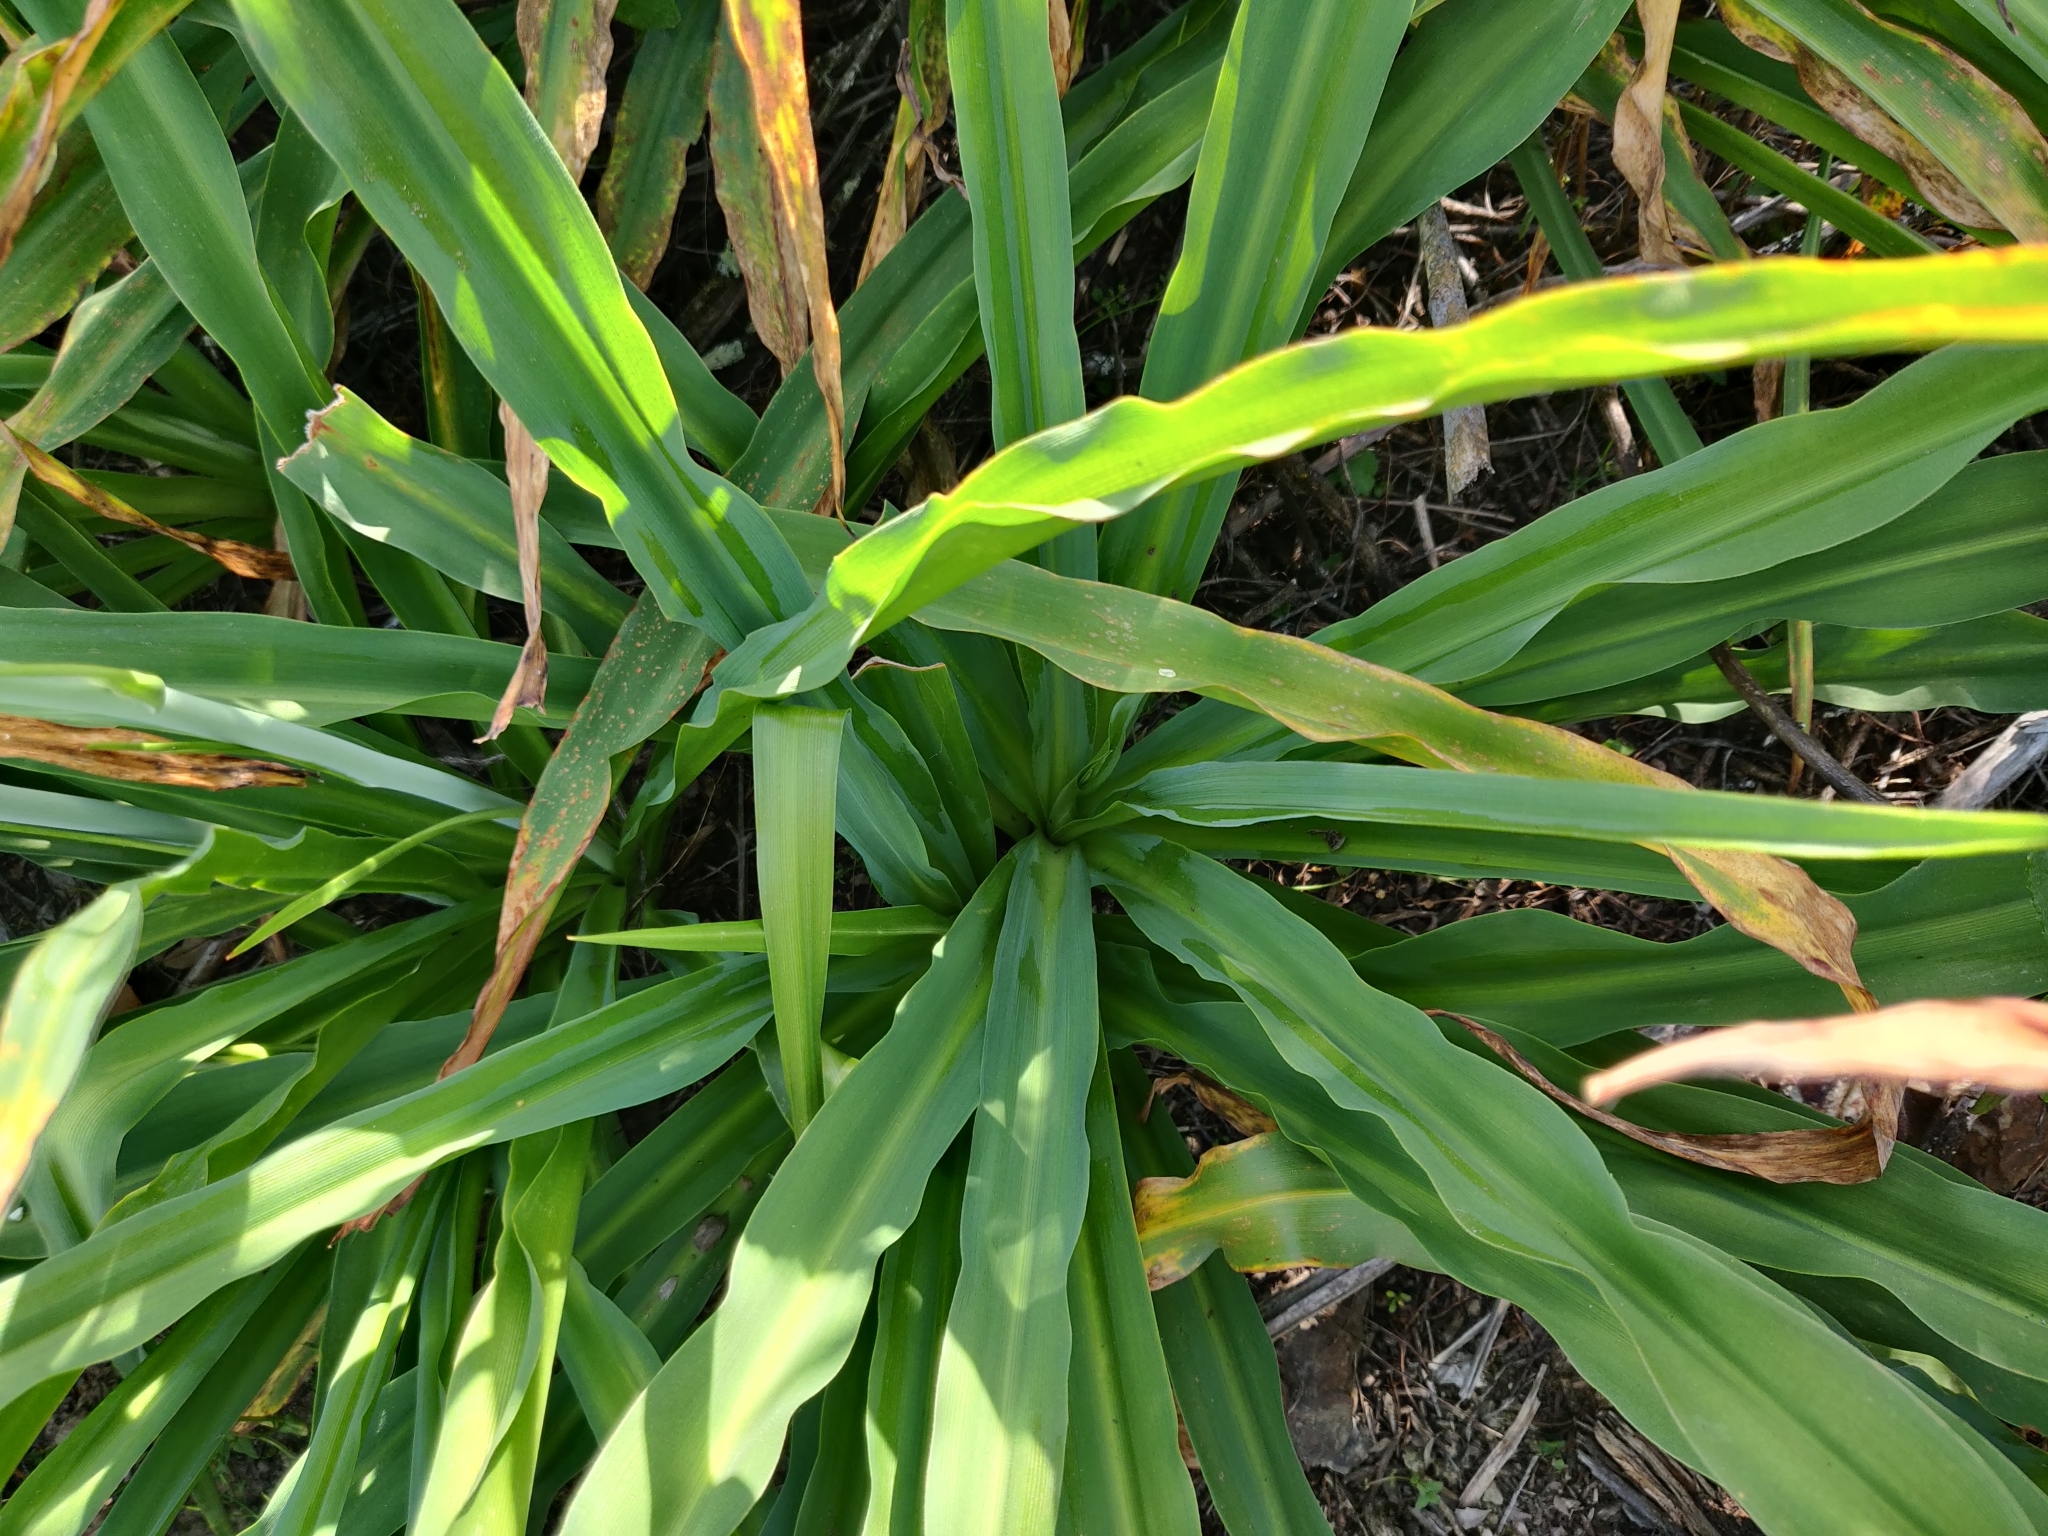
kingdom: Plantae
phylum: Tracheophyta
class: Liliopsida
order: Asparagales
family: Asparagaceae
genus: Chlorogalum
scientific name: Chlorogalum pomeridianum
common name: Amole
